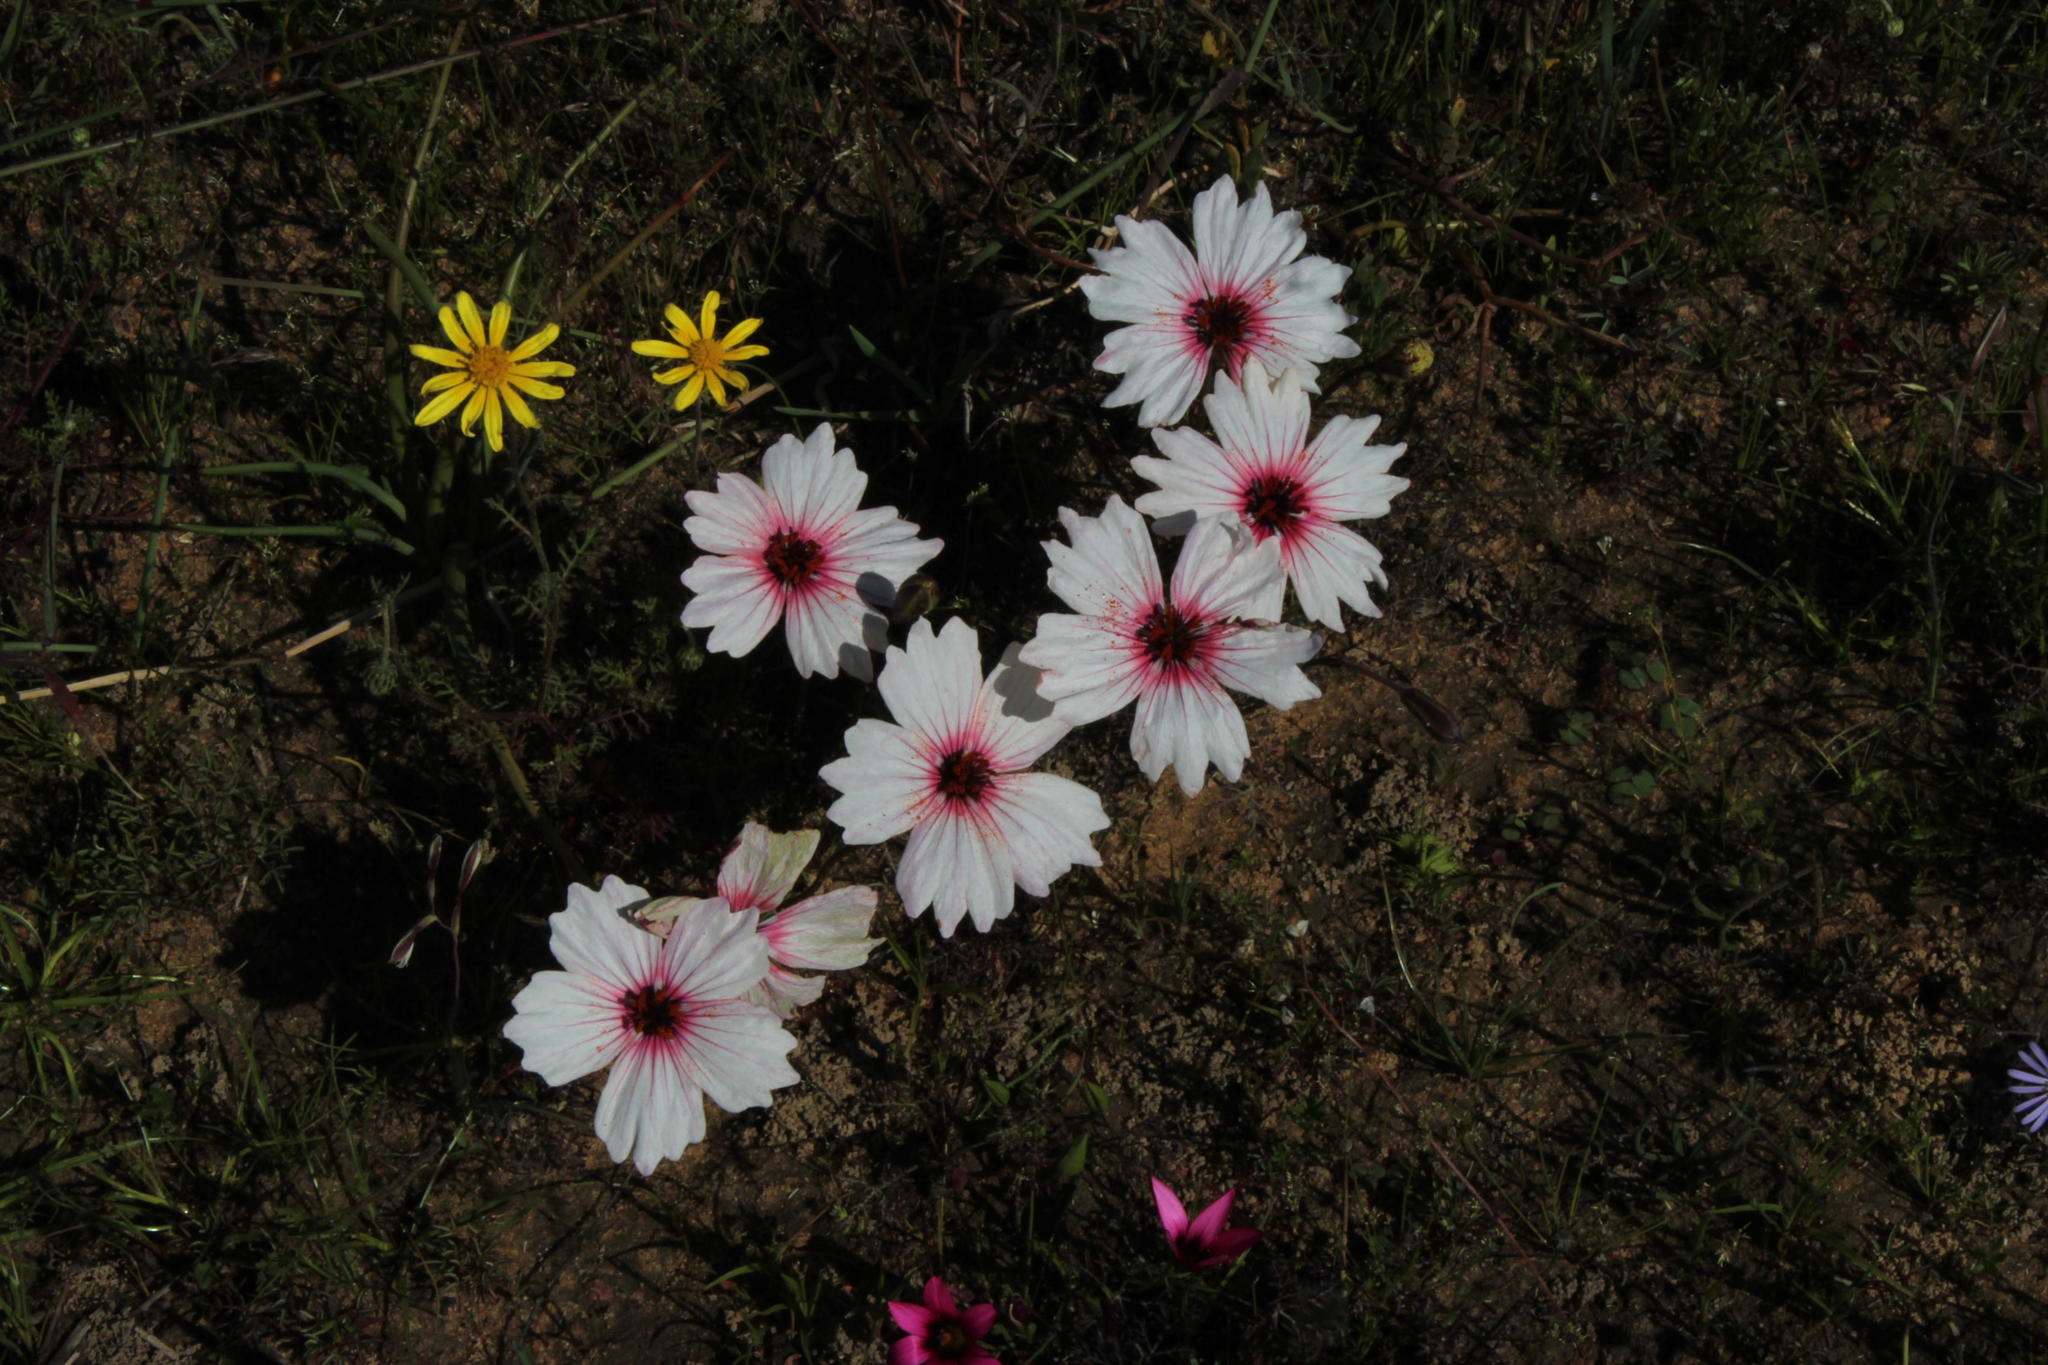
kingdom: Plantae
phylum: Tracheophyta
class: Magnoliopsida
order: Geraniales
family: Geraniaceae
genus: Monsonia
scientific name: Monsonia speciosa
